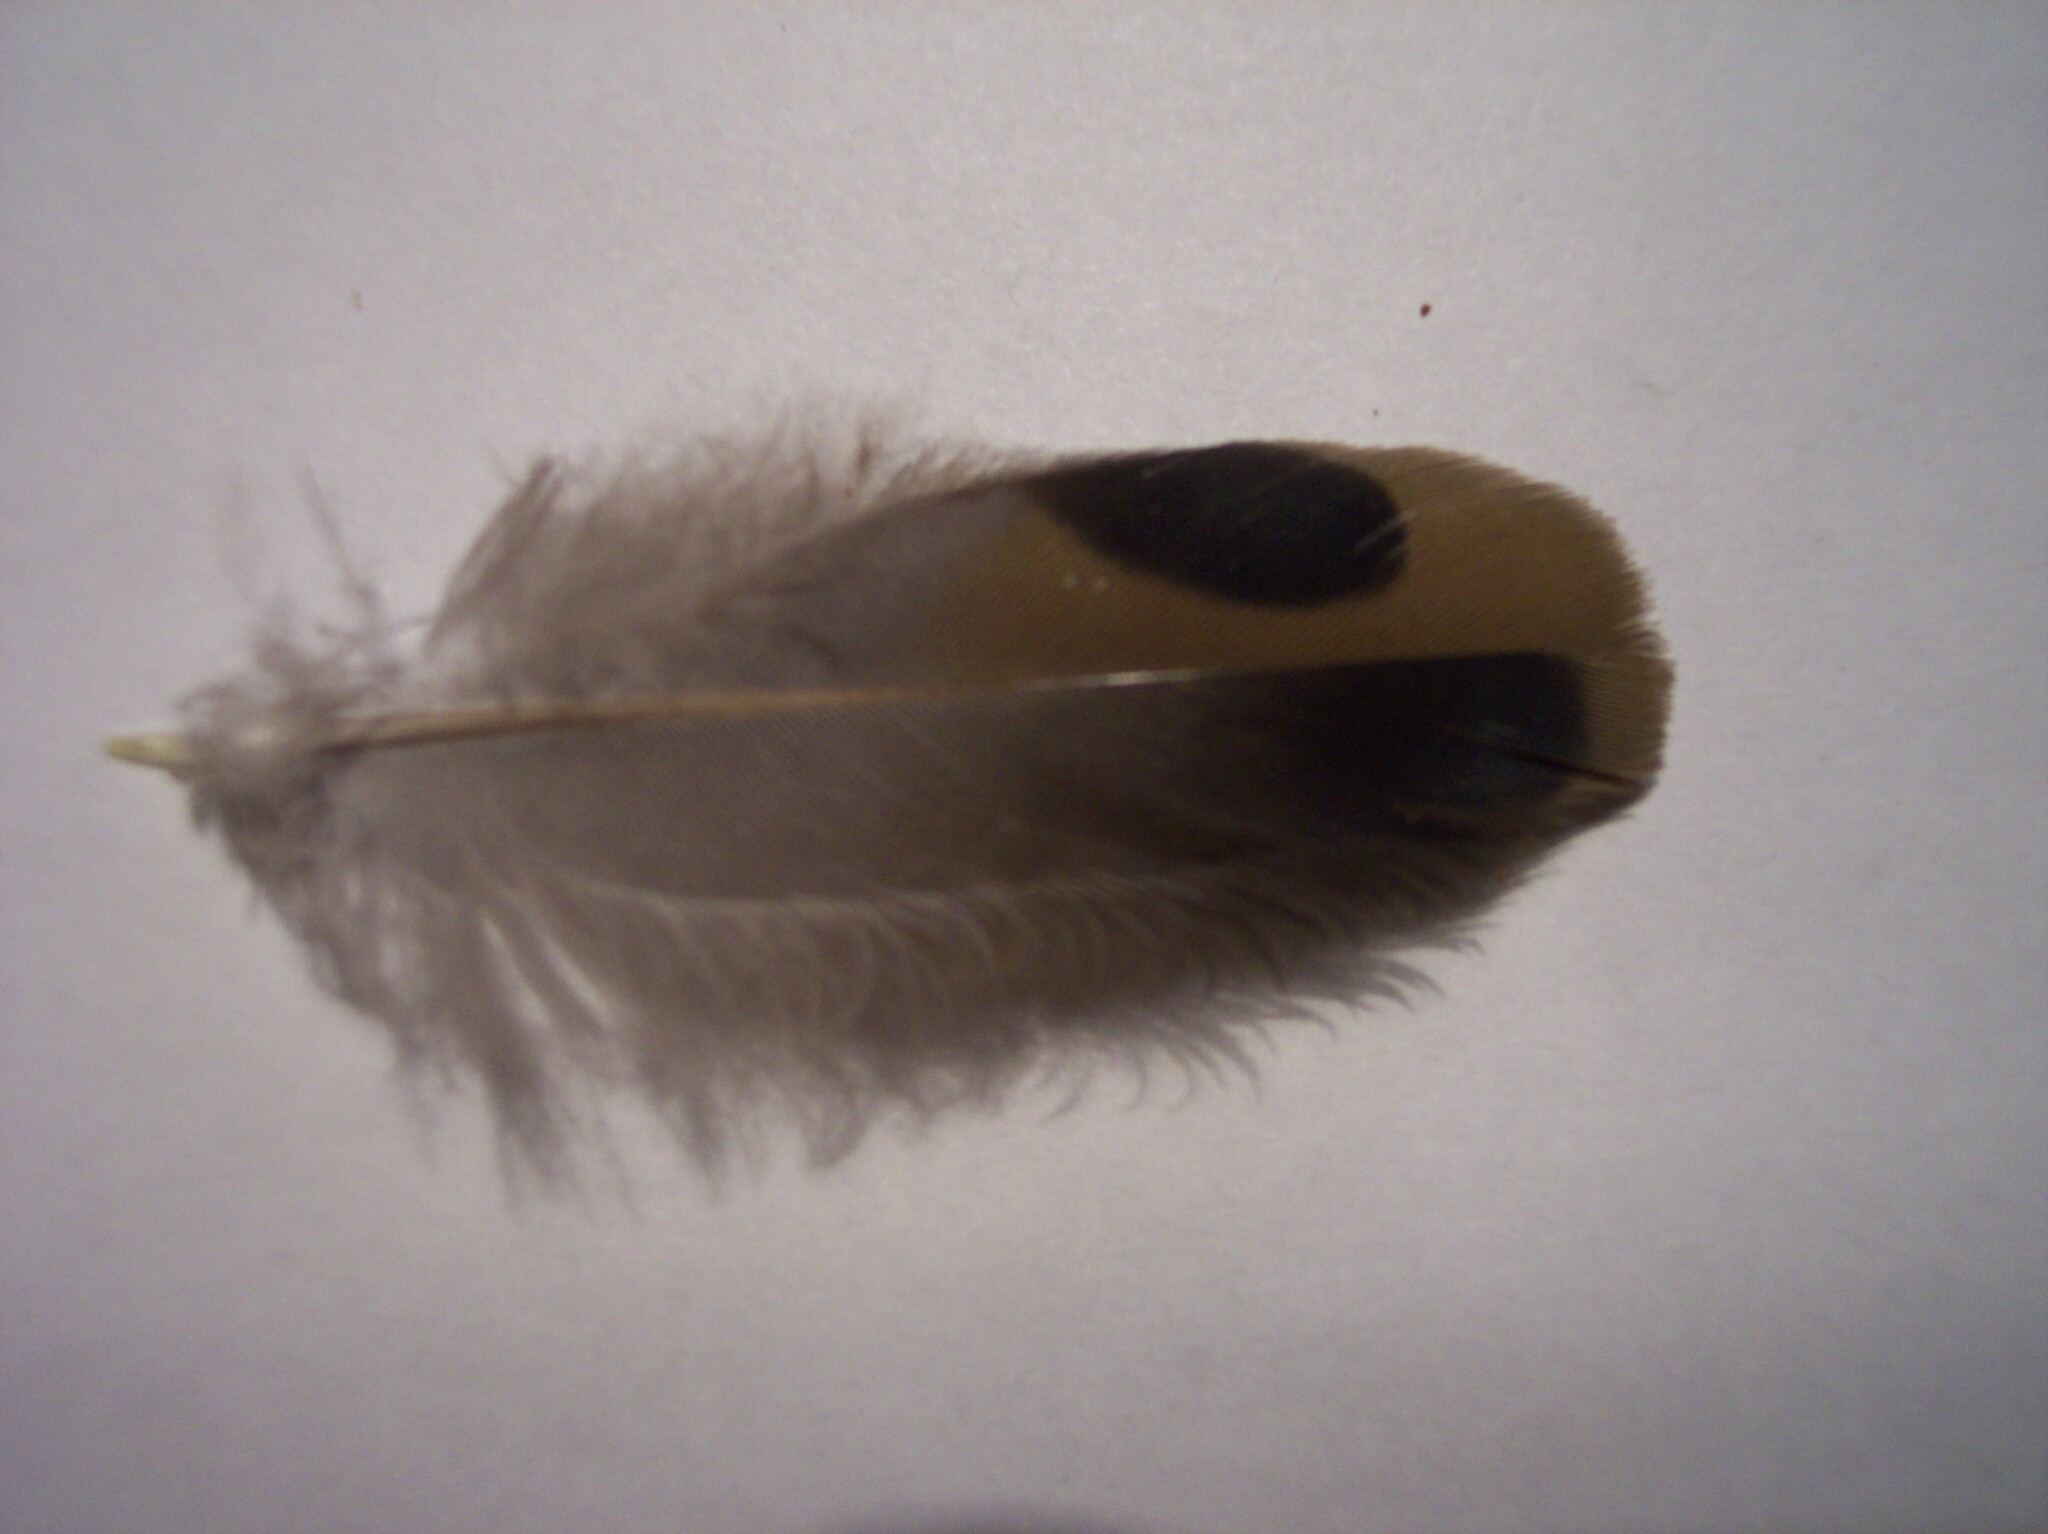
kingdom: Animalia
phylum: Chordata
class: Aves
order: Columbiformes
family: Columbidae
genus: Zenaida
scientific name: Zenaida macroura
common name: Mourning dove
